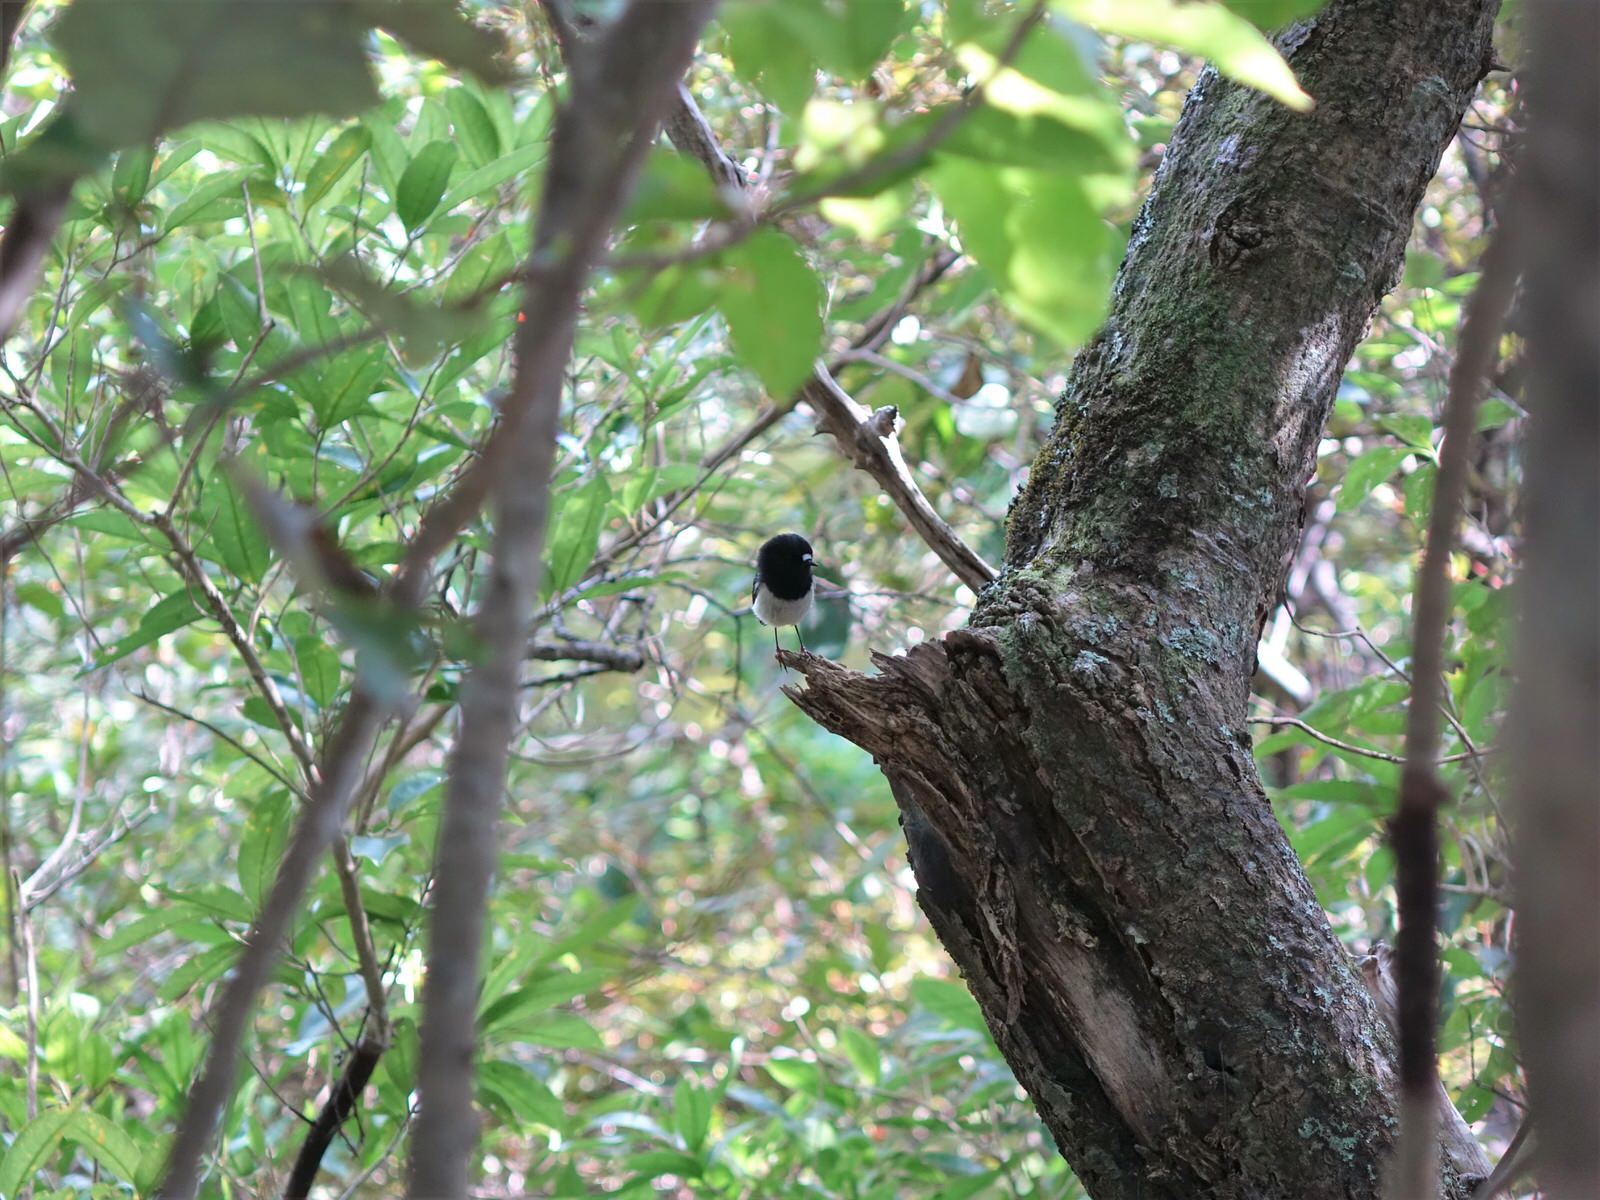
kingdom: Animalia
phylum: Chordata
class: Aves
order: Passeriformes
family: Petroicidae
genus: Petroica
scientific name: Petroica macrocephala
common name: Tomtit
